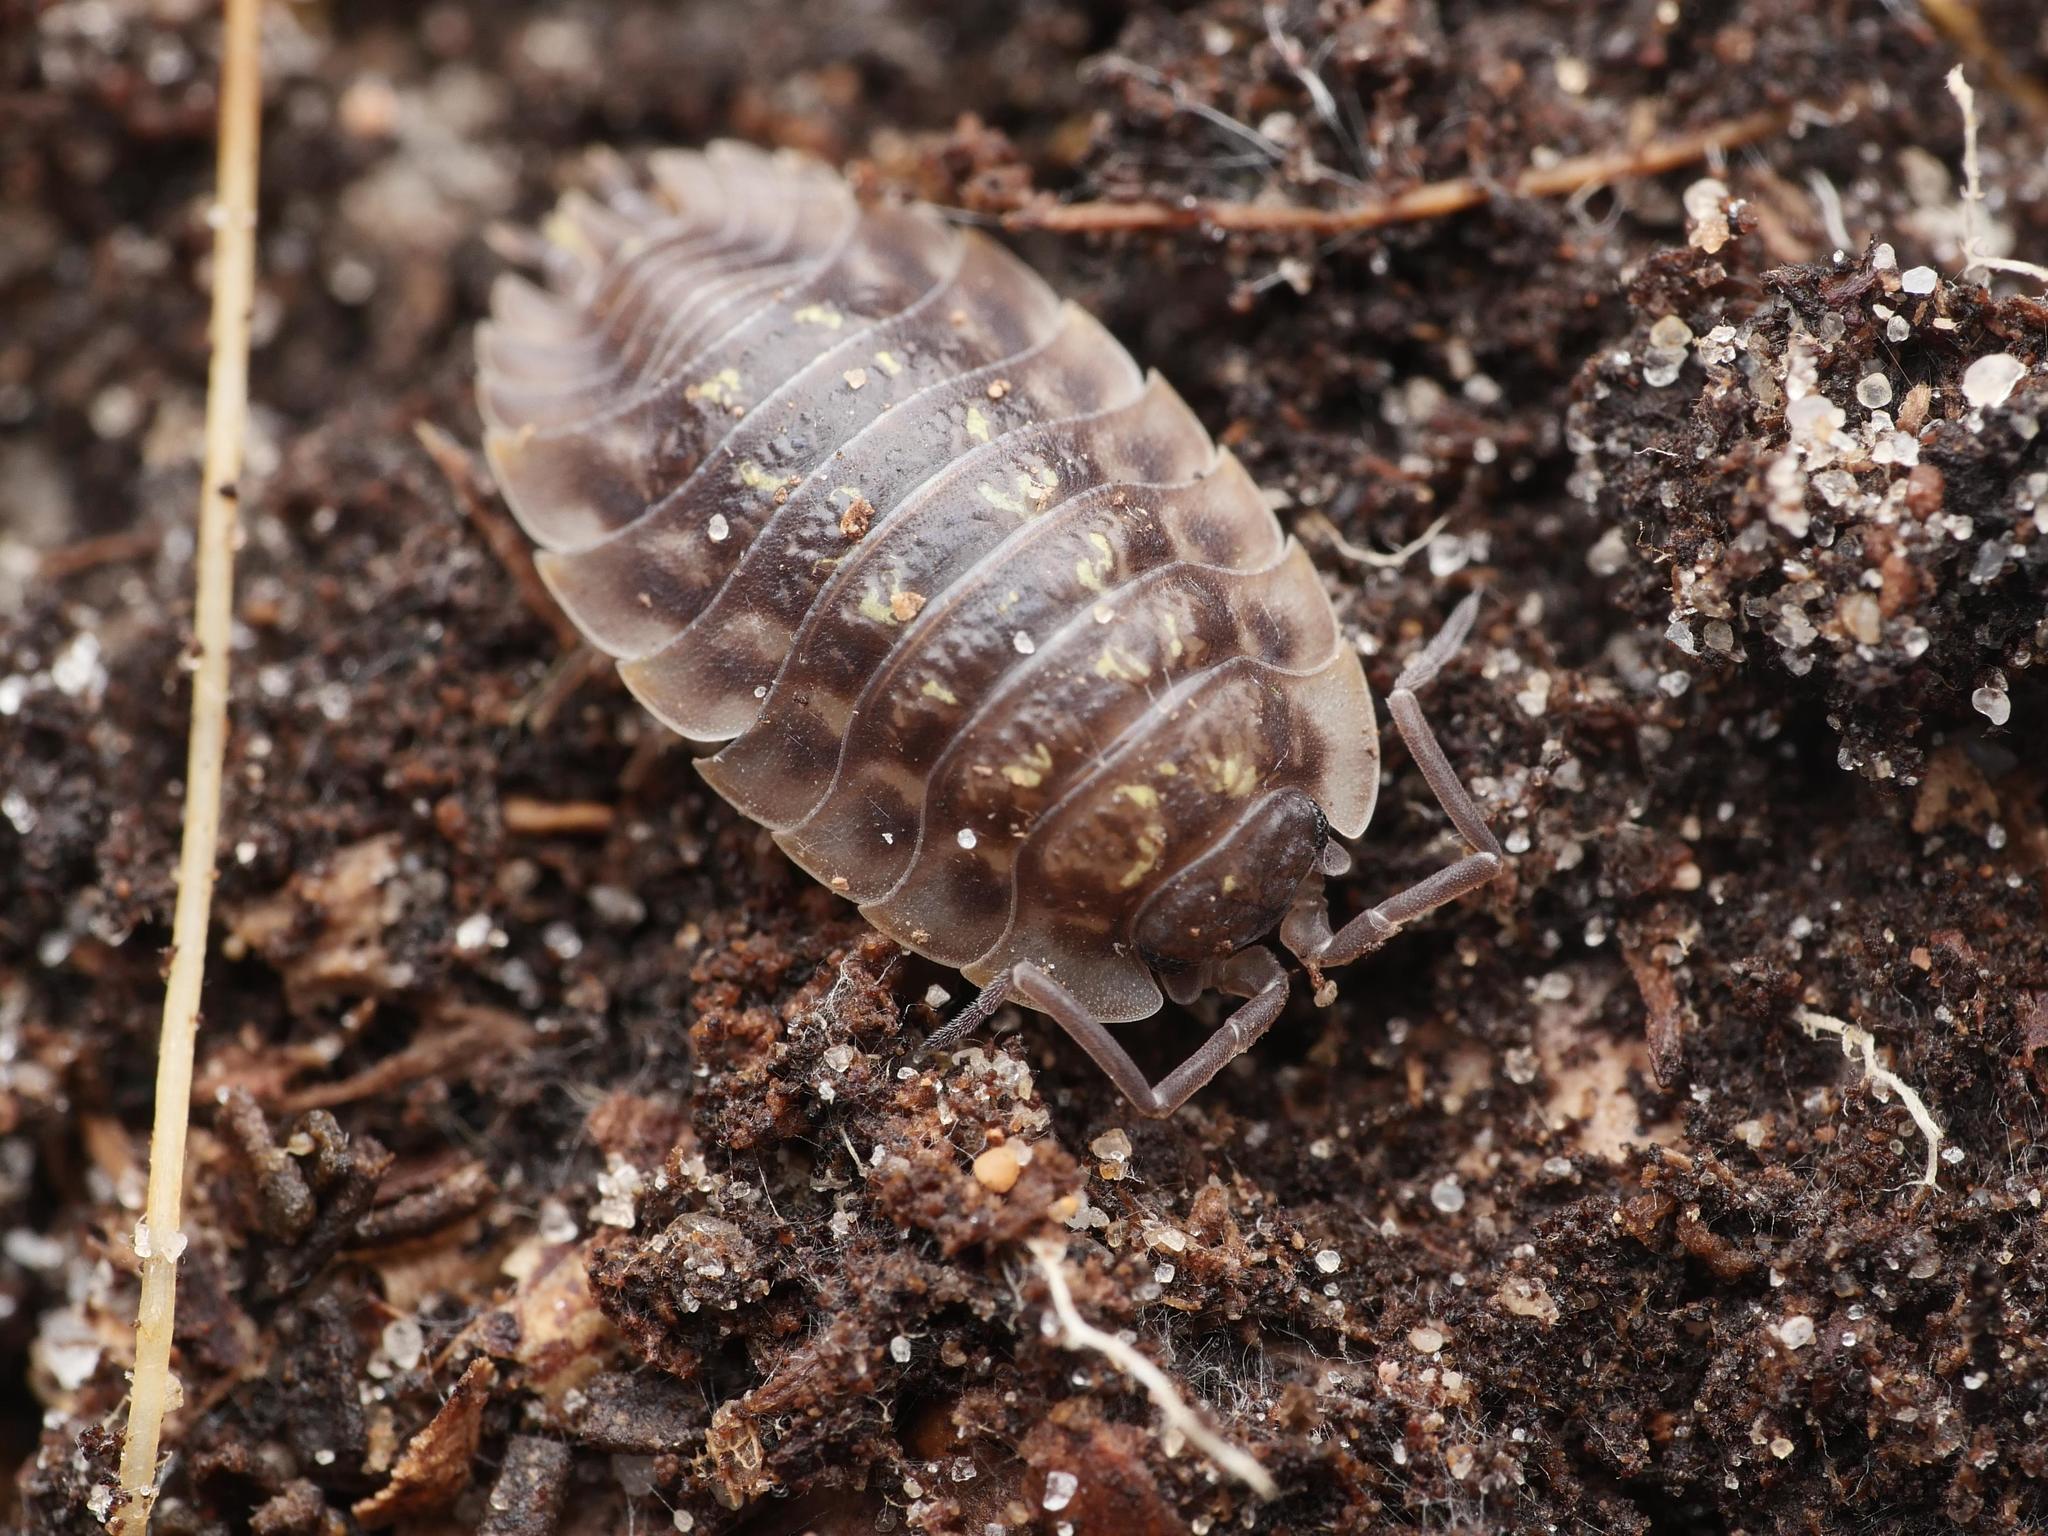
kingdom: Animalia
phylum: Arthropoda
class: Malacostraca
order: Isopoda
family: Oniscidae
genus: Oniscus
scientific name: Oniscus asellus
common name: Common shiny woodlouse
